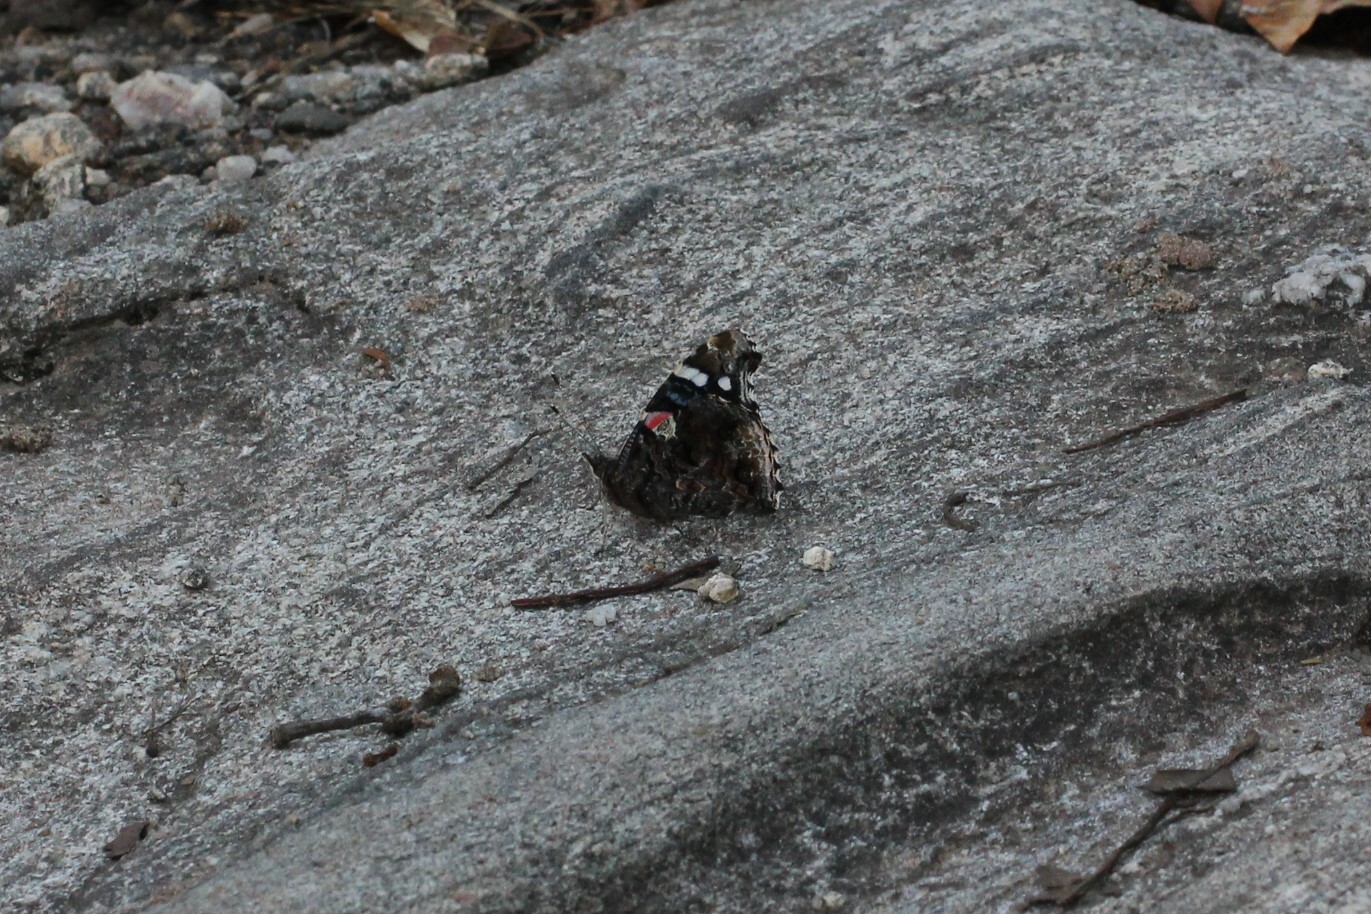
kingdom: Animalia
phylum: Arthropoda
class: Insecta
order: Lepidoptera
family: Nymphalidae
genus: Vanessa
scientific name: Vanessa atalanta
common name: Red admiral
